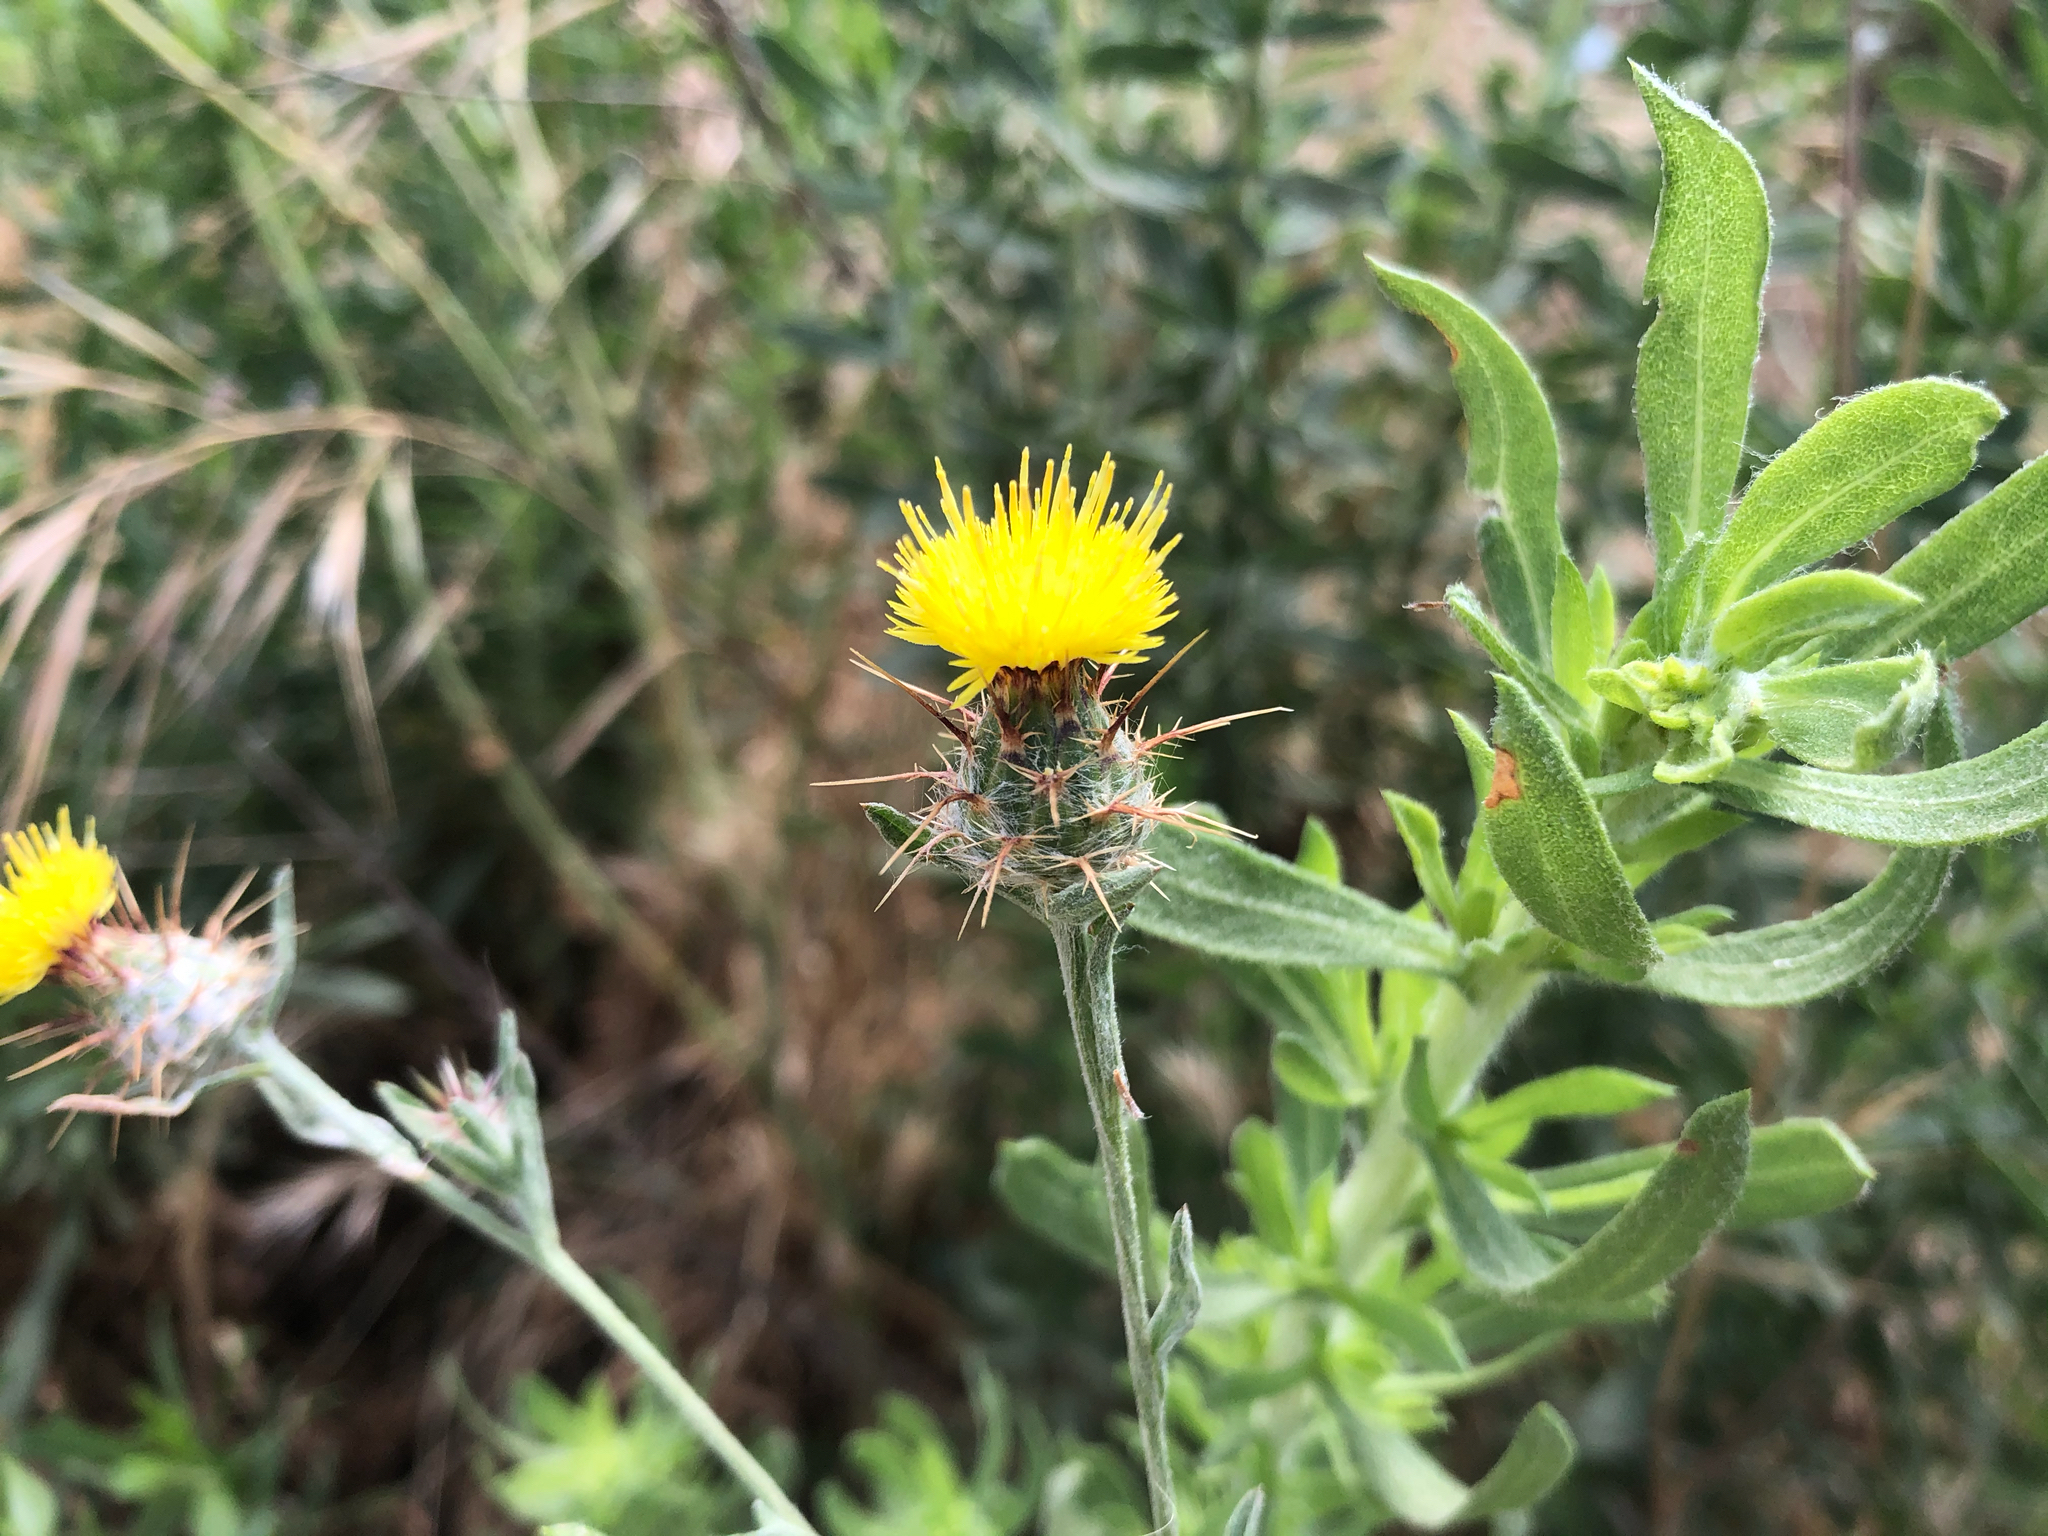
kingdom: Plantae
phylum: Tracheophyta
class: Magnoliopsida
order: Asterales
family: Asteraceae
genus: Centaurea
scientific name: Centaurea melitensis
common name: Maltese star-thistle
